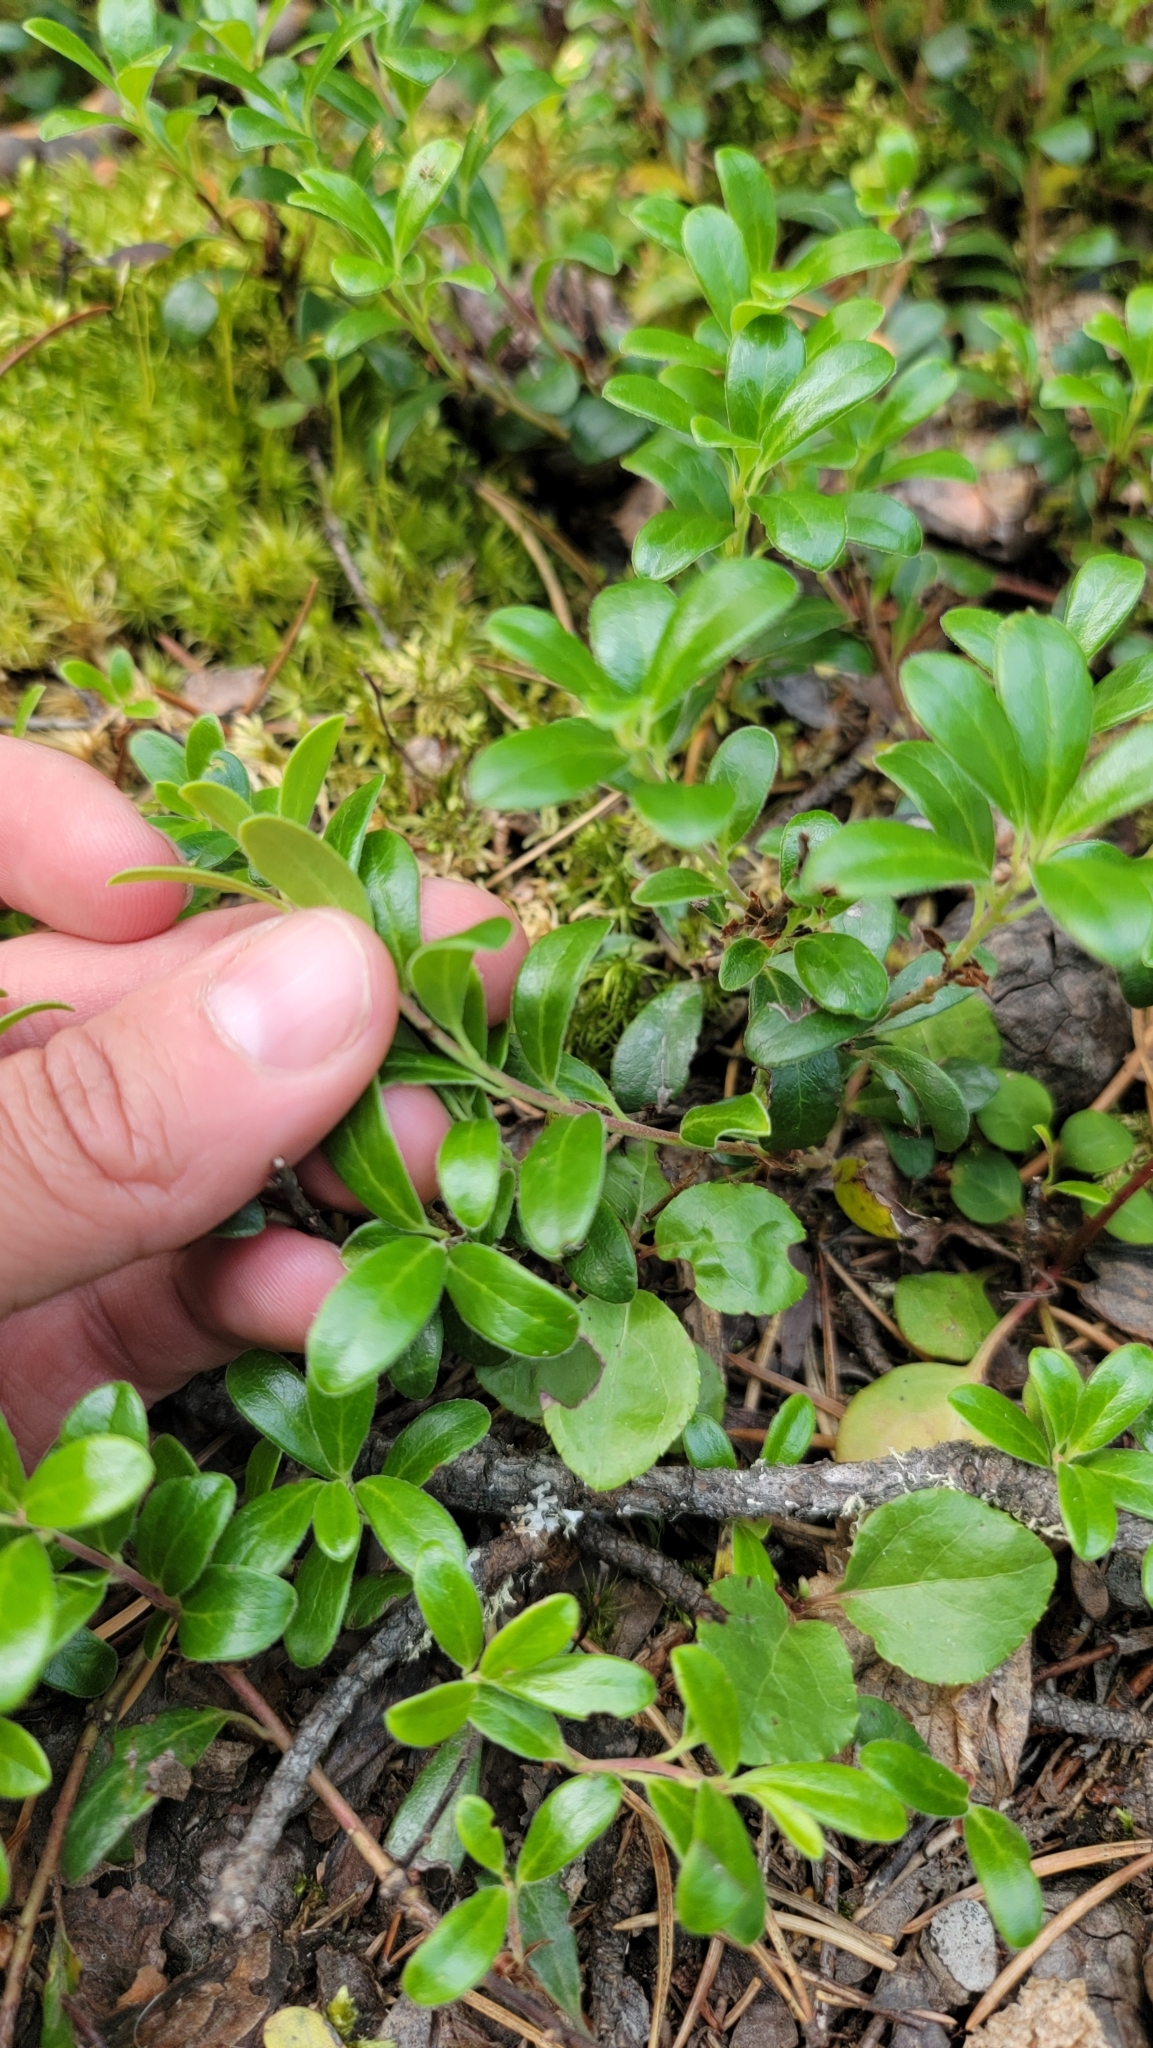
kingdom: Plantae
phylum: Tracheophyta
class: Magnoliopsida
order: Ericales
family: Ericaceae
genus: Arctostaphylos
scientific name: Arctostaphylos uva-ursi
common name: Bearberry
